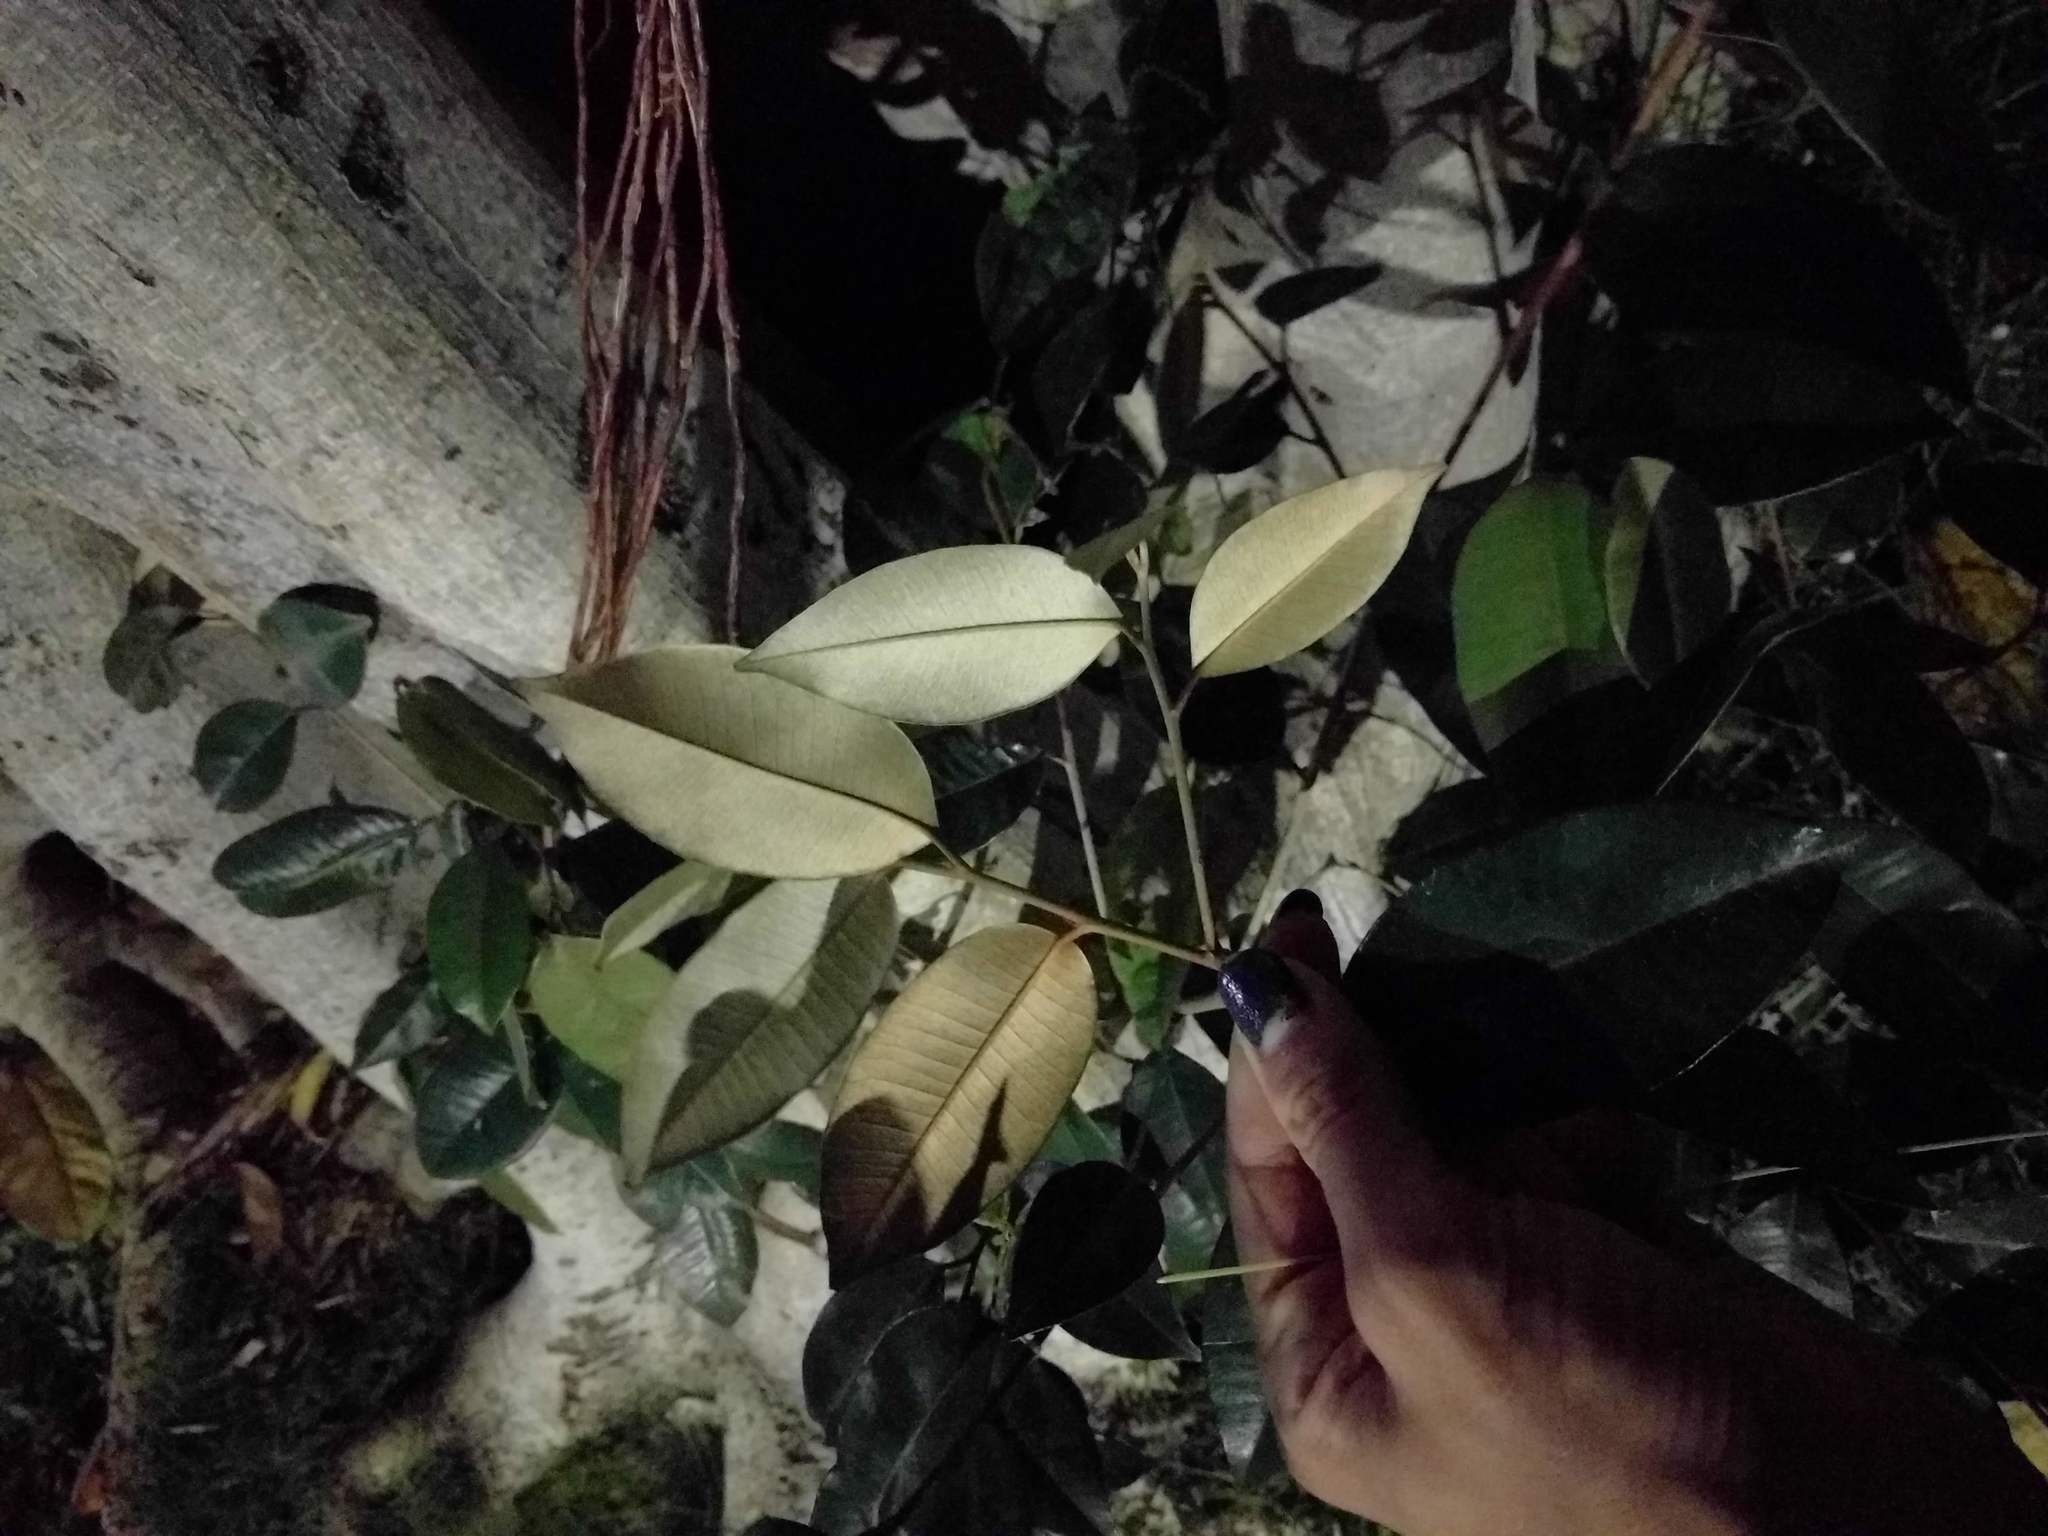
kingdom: Plantae
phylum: Tracheophyta
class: Magnoliopsida
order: Ericales
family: Sapotaceae
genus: Chrysophyllum
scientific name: Chrysophyllum oliviforme
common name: Satinleaf
